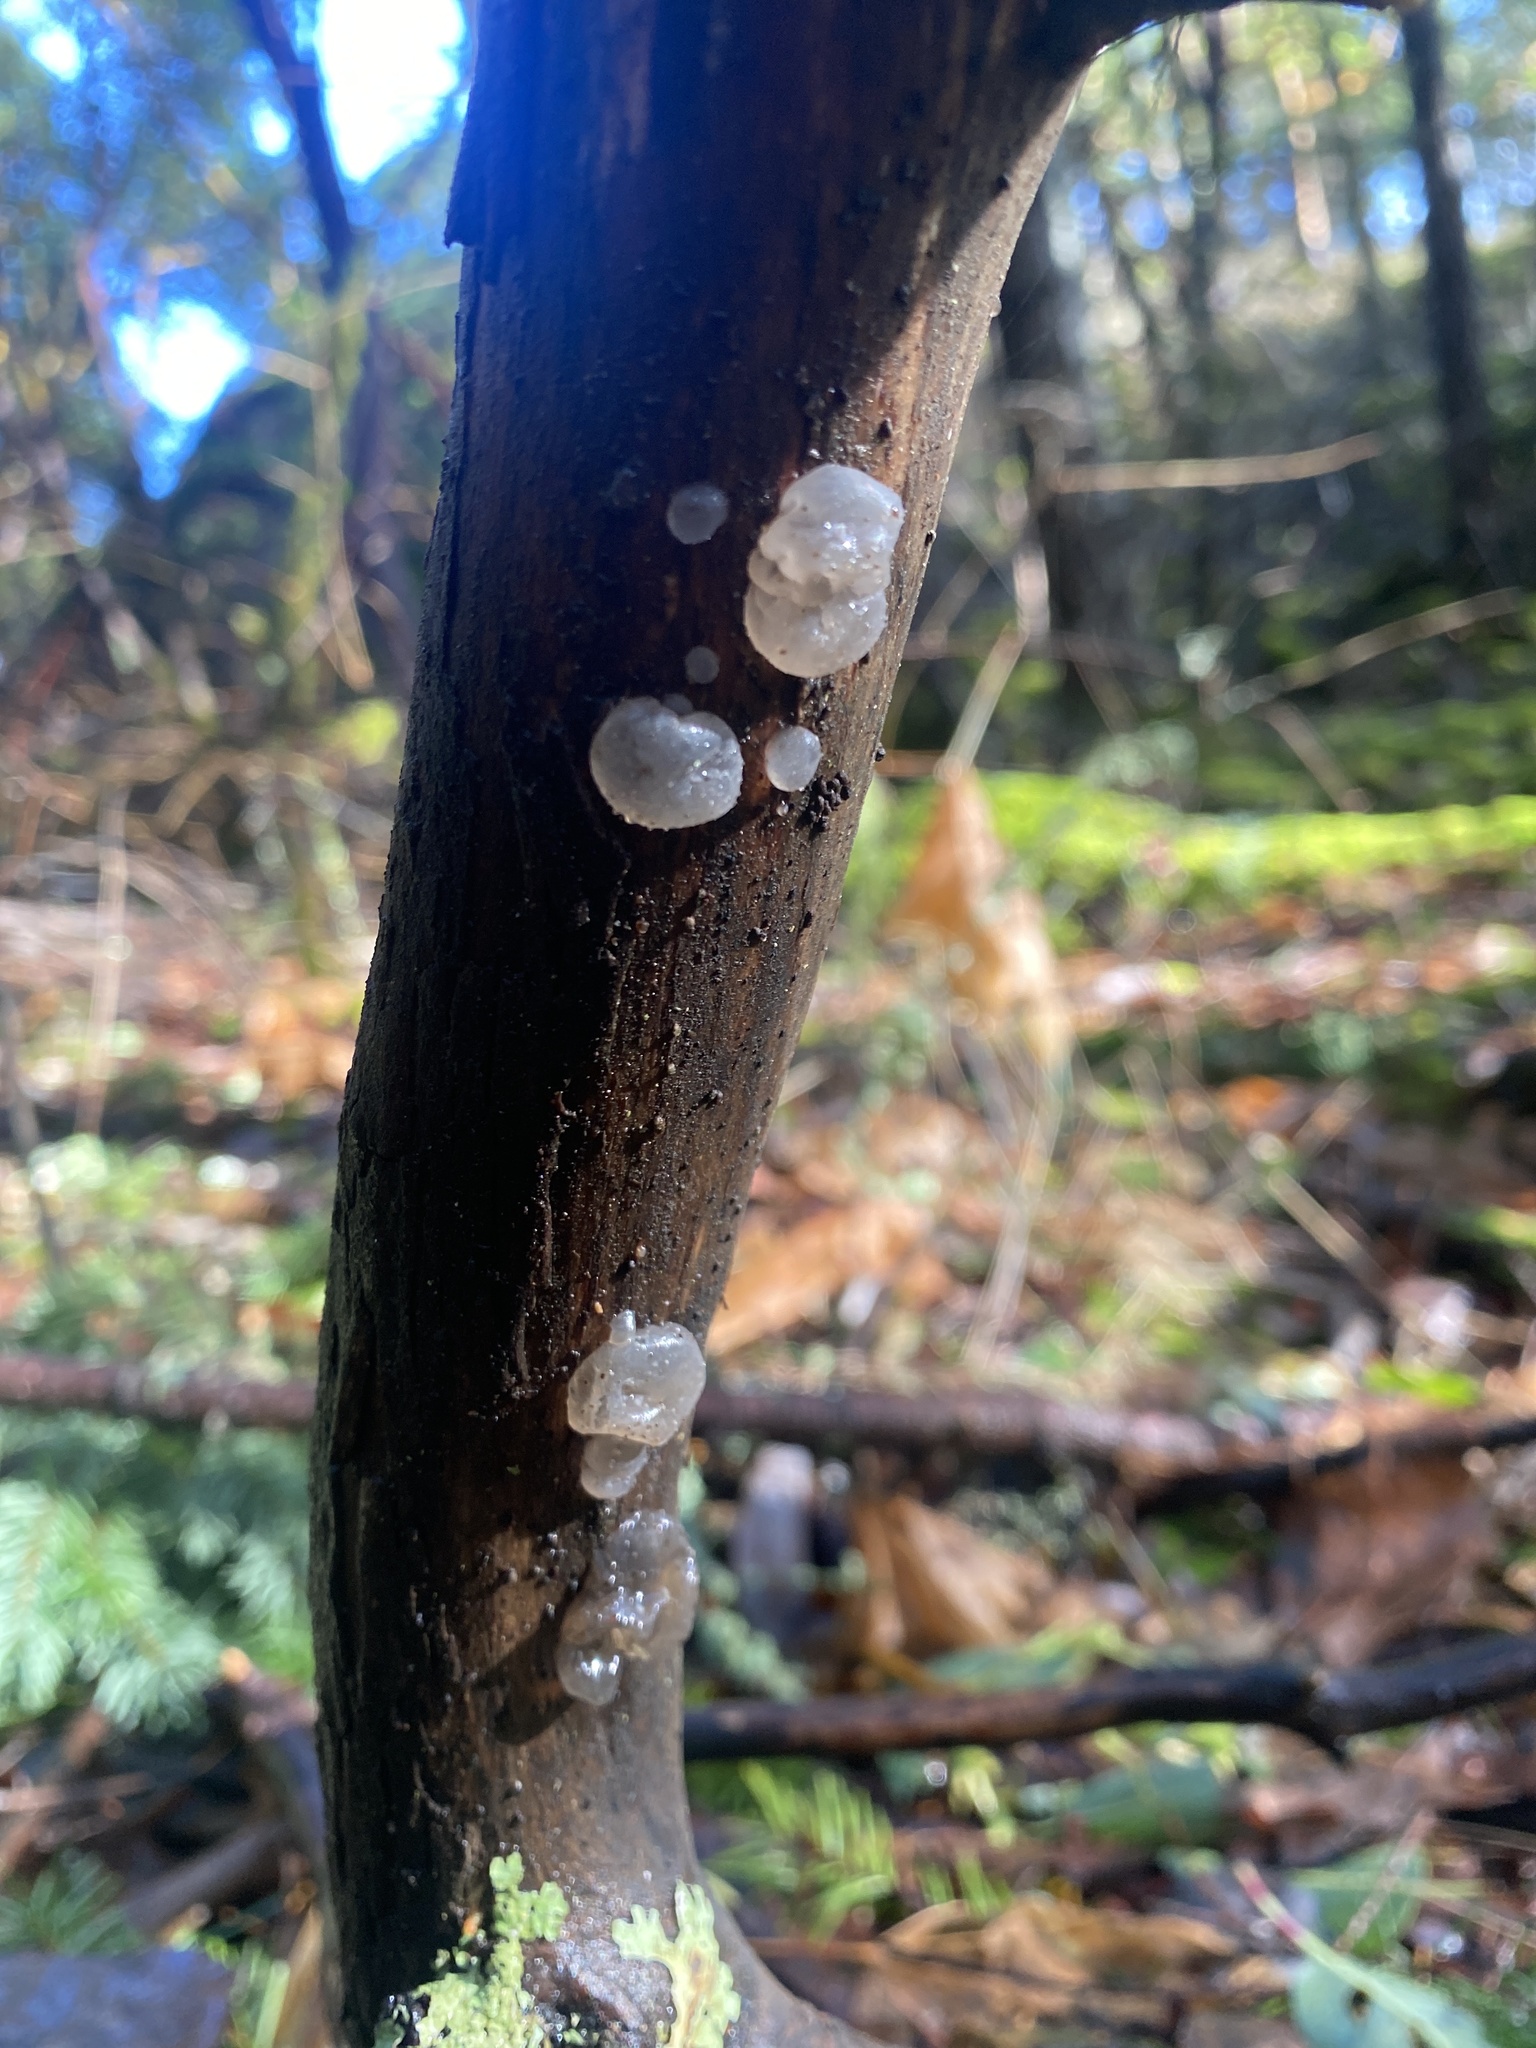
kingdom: Fungi
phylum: Basidiomycota
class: Agaricomycetes
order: Auriculariales
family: Hyaloriaceae
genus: Myxarium
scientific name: Myxarium nucleatum
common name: Crystal brain fungus
